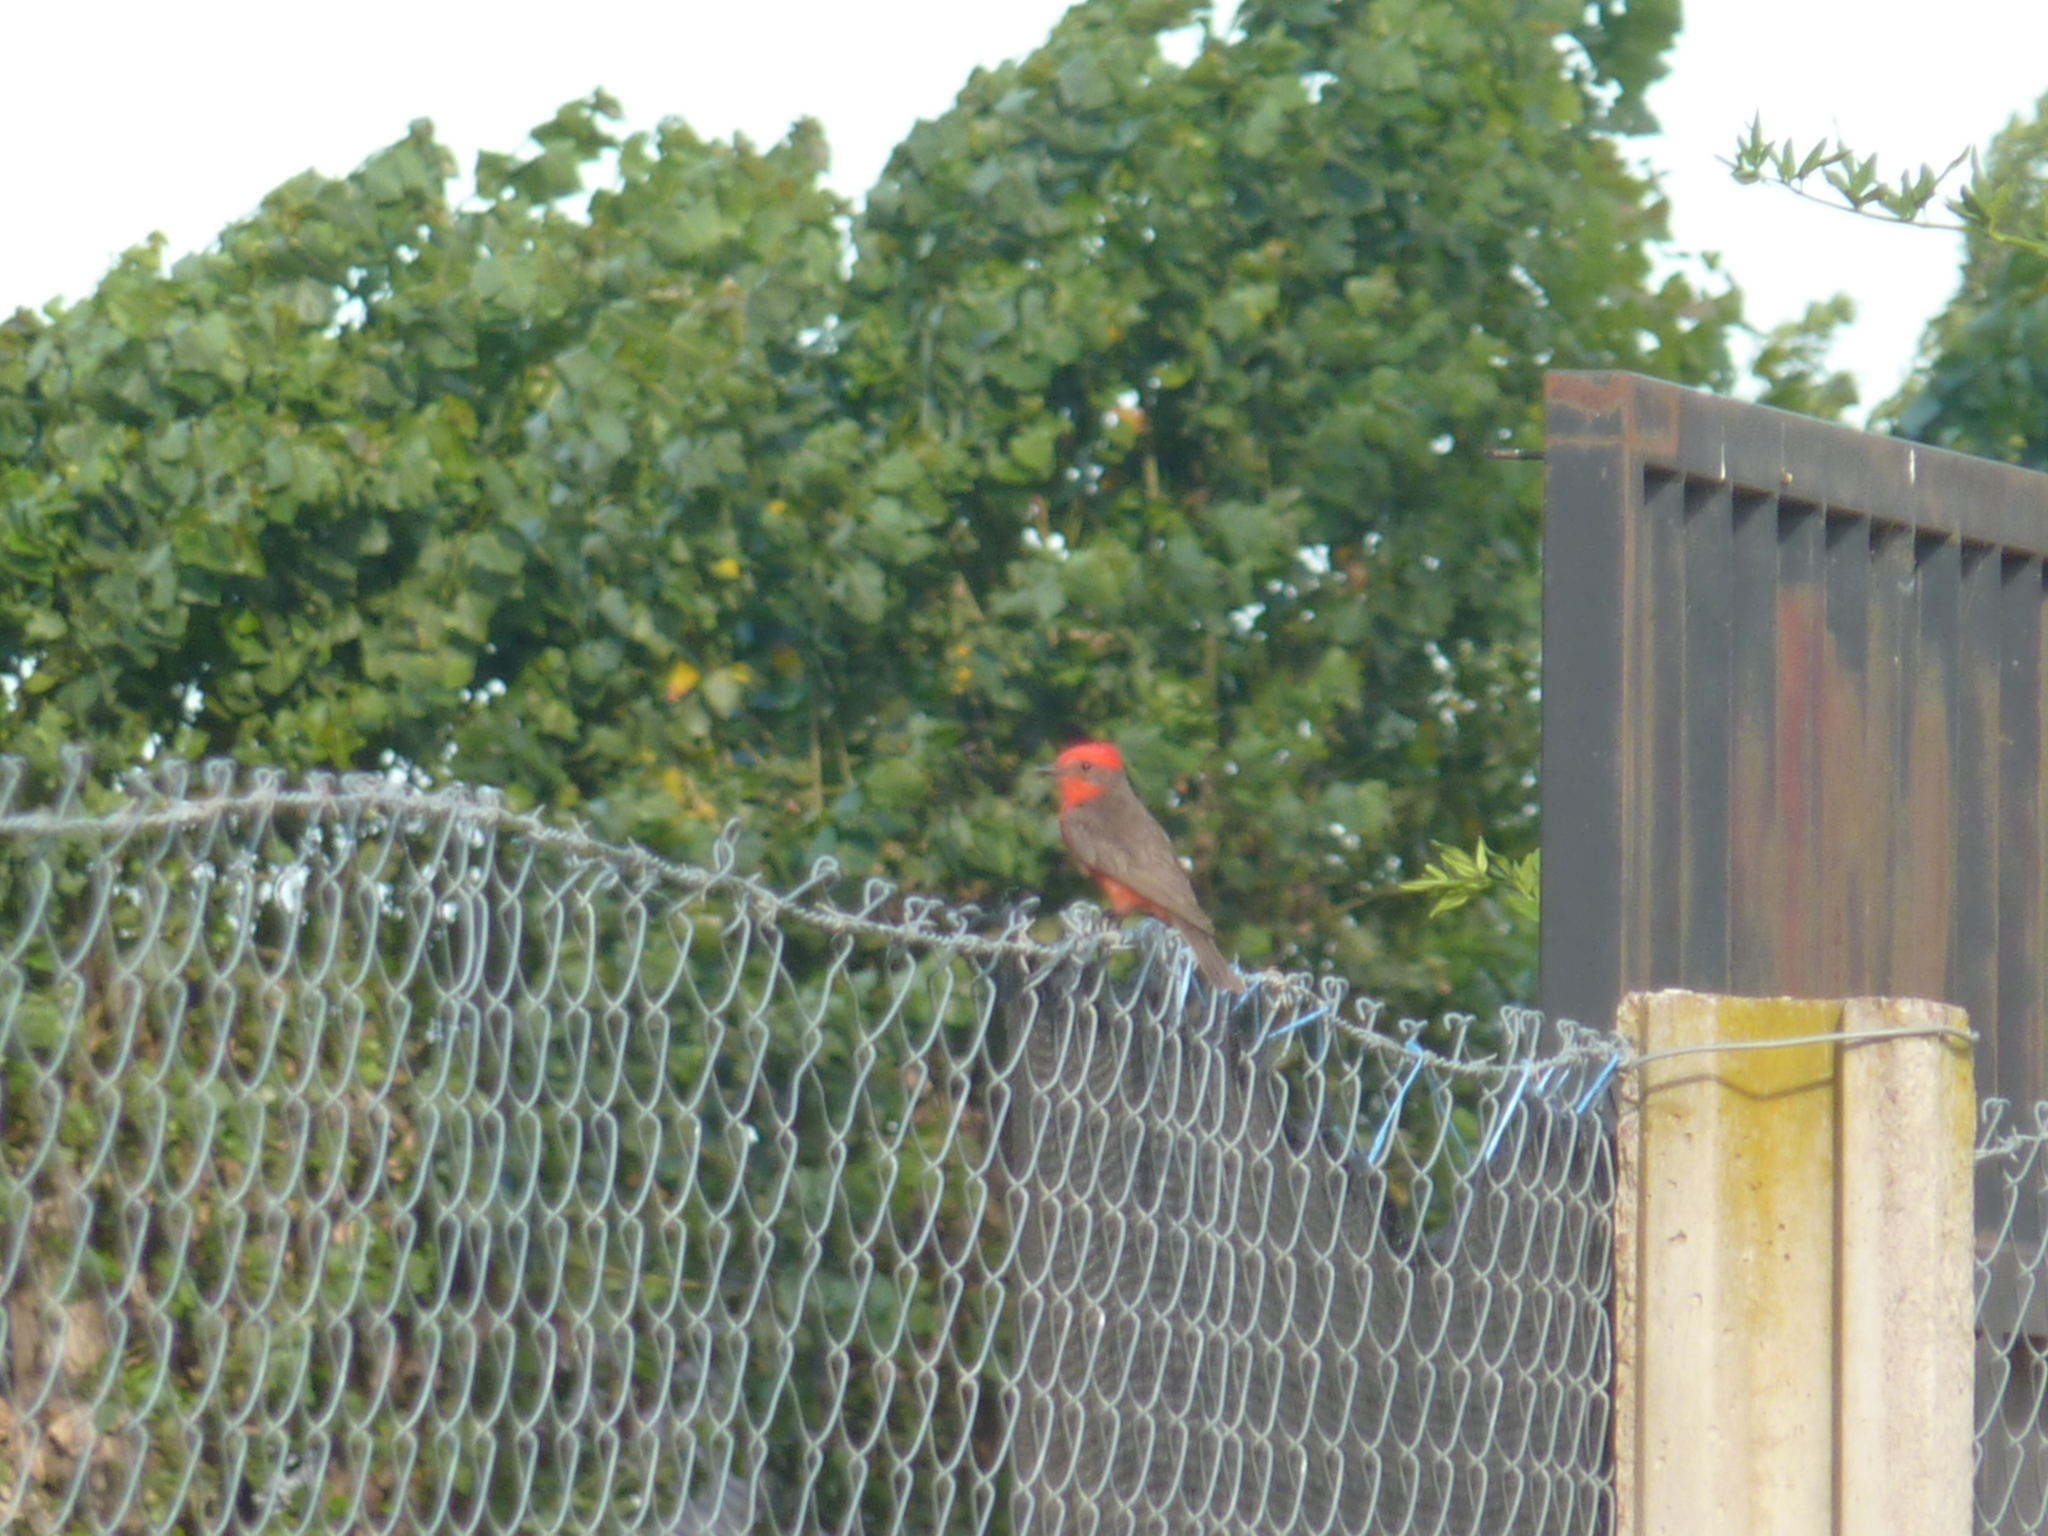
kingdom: Animalia
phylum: Chordata
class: Aves
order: Passeriformes
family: Tyrannidae
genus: Pyrocephalus
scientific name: Pyrocephalus rubinus
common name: Vermilion flycatcher
